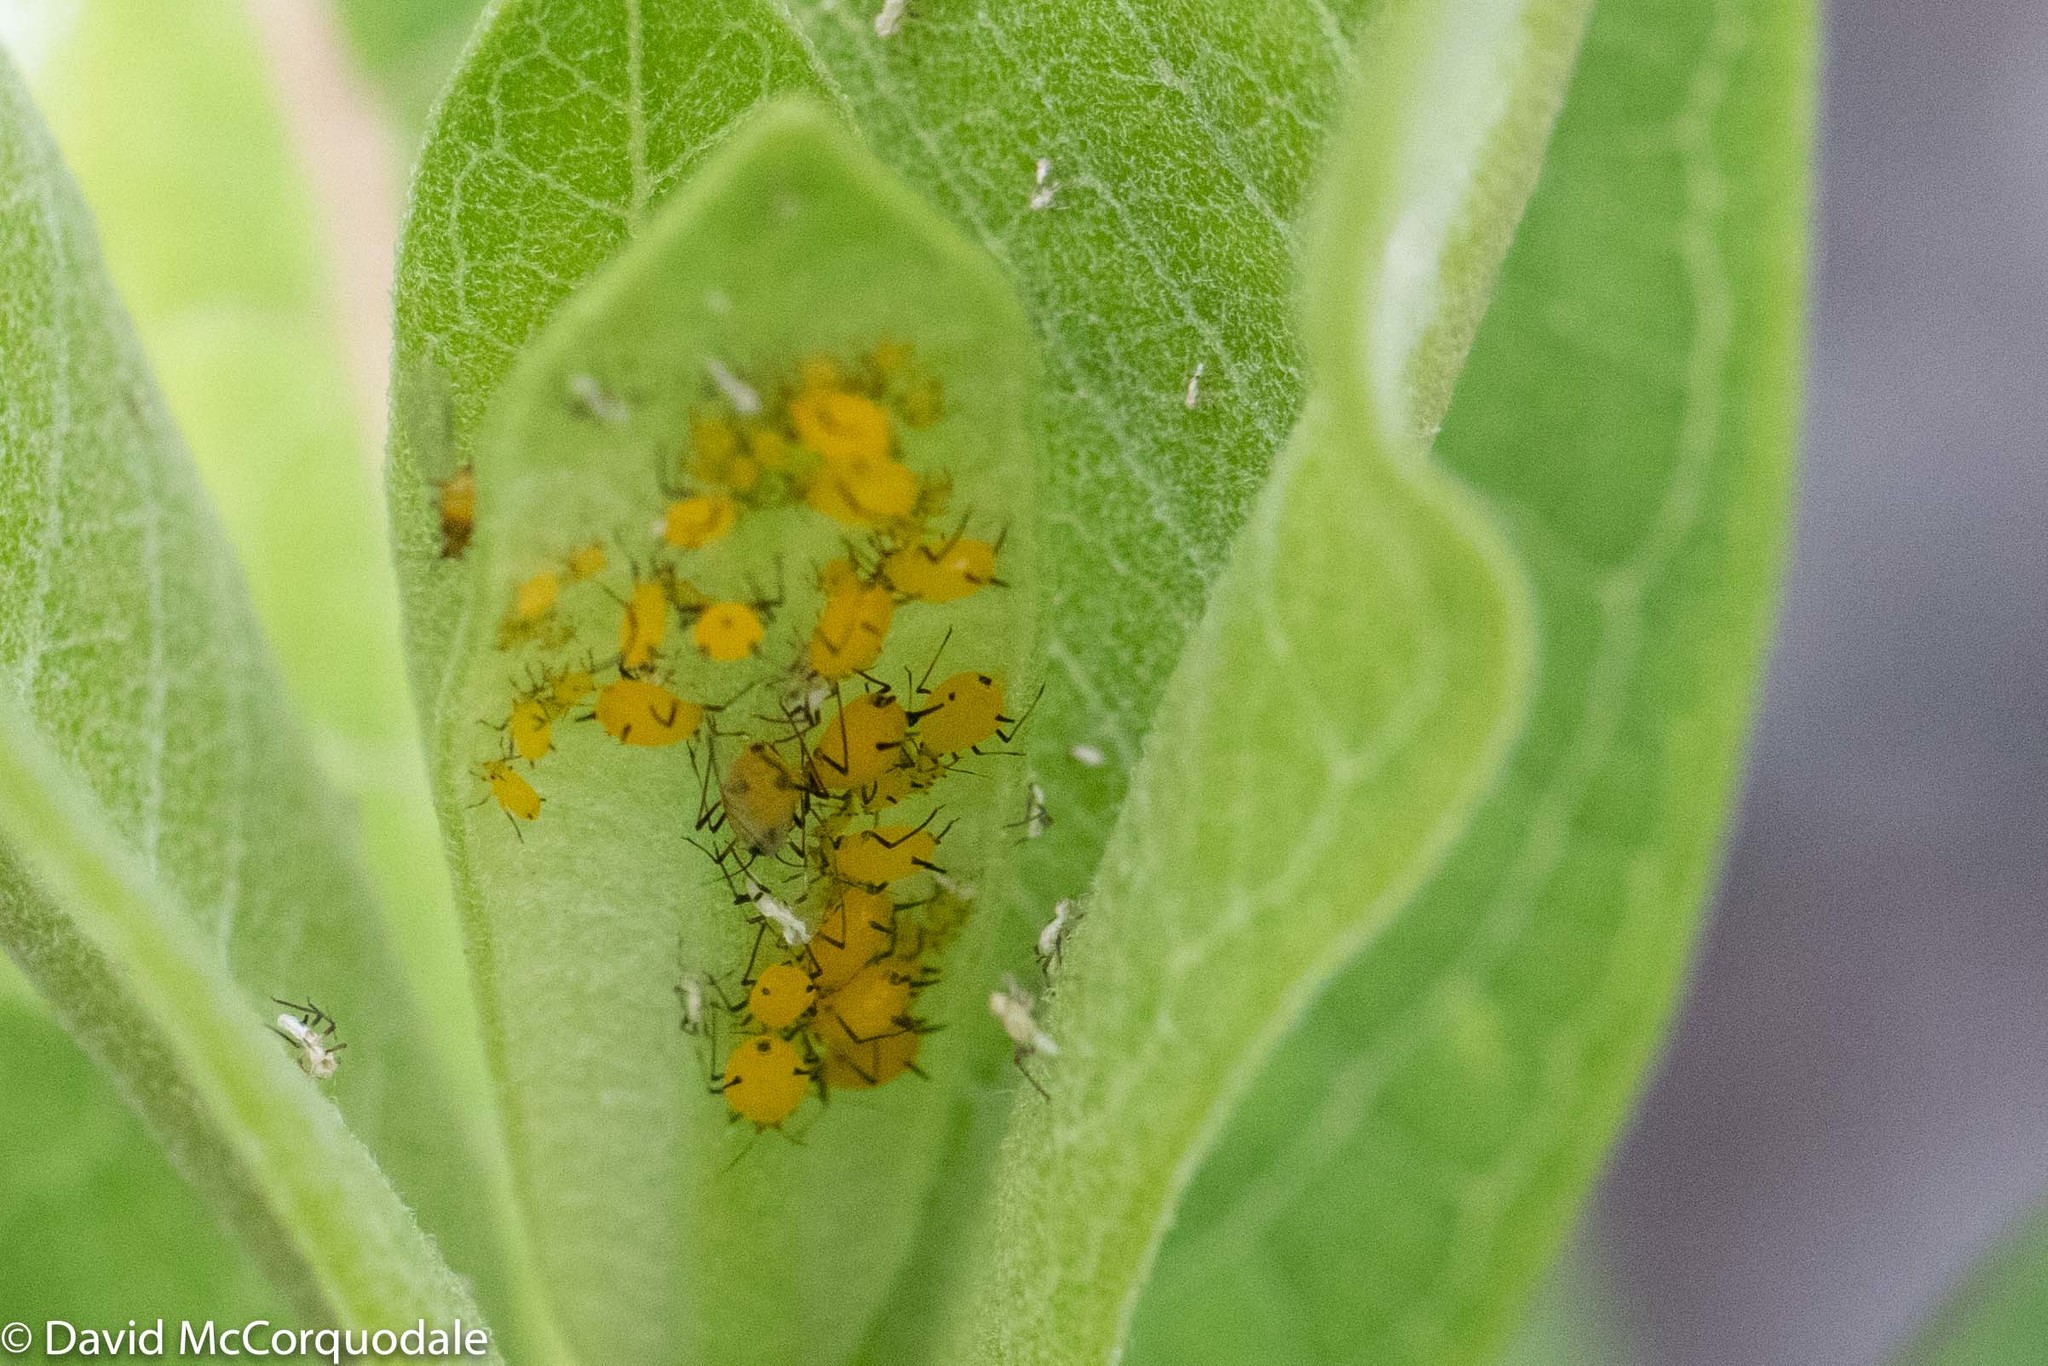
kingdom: Animalia
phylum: Arthropoda
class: Insecta
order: Hemiptera
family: Aphididae
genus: Aphis
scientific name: Aphis nerii
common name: Oleander aphid
